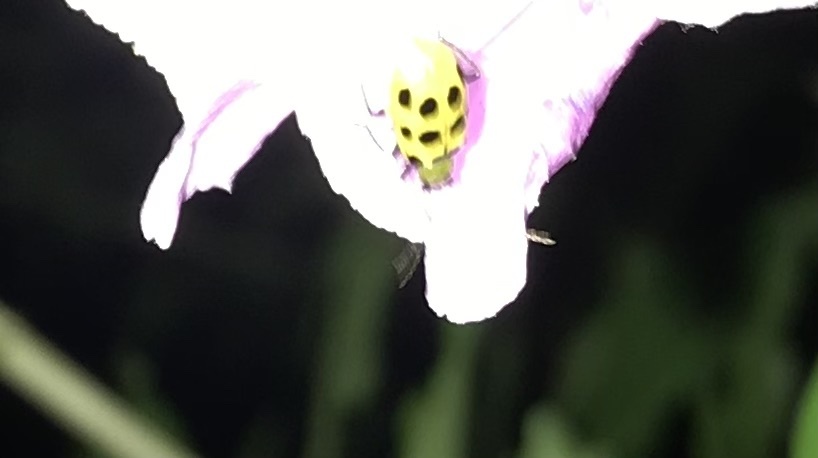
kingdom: Animalia
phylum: Arthropoda
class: Insecta
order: Coleoptera
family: Chrysomelidae
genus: Diabrotica
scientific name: Diabrotica undecimpunctata
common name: Spotted cucumber beetle
